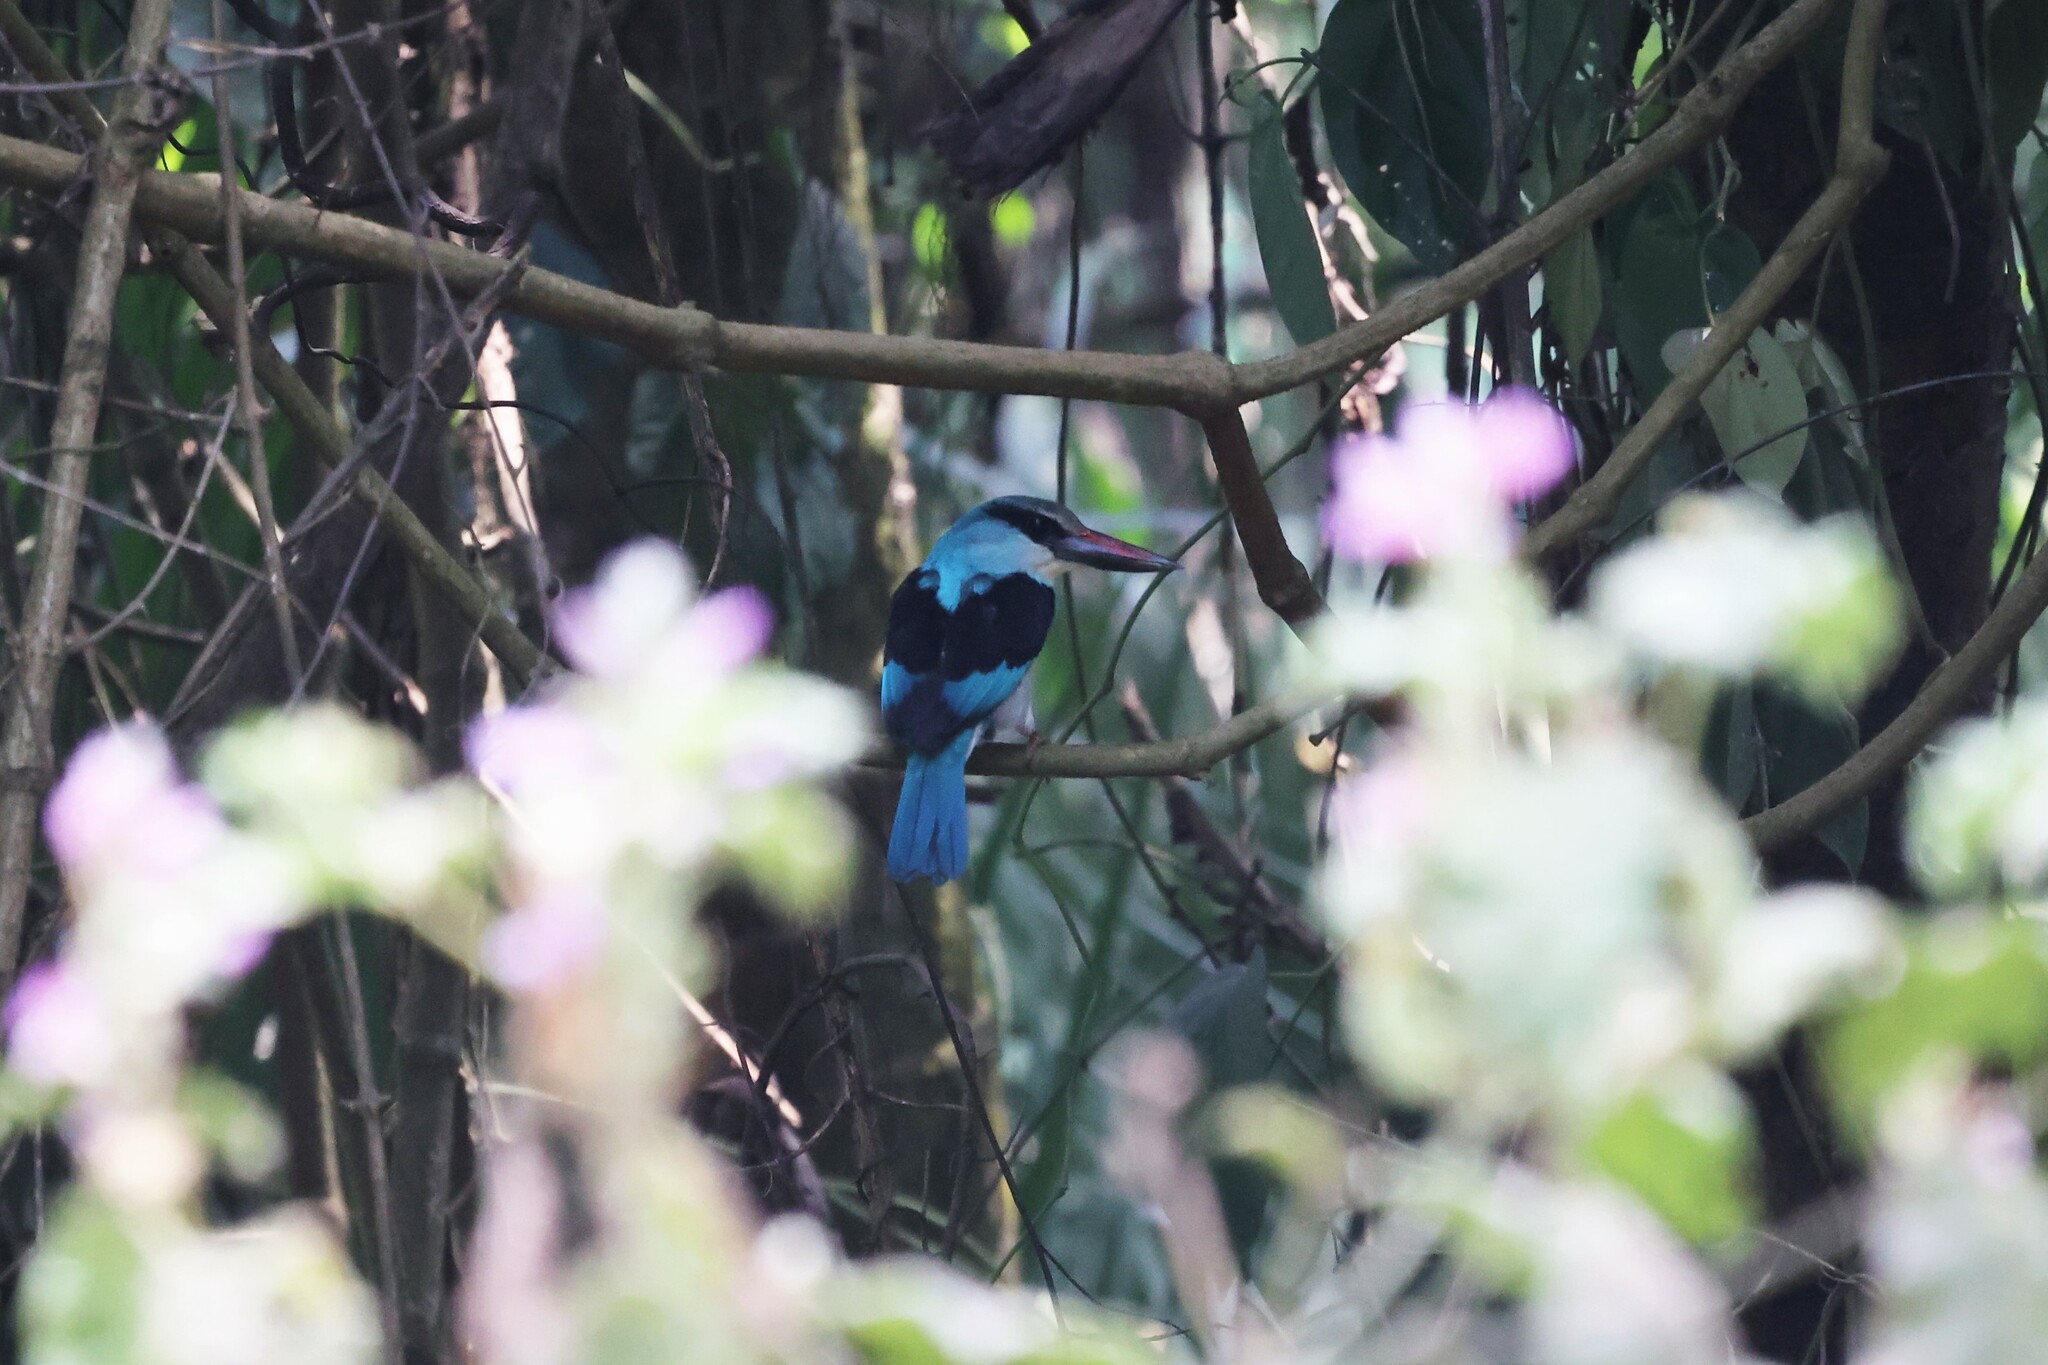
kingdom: Animalia
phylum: Chordata
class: Aves
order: Coraciiformes
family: Alcedinidae
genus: Halcyon
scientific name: Halcyon malimbica
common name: Blue-breasted kingfisher
